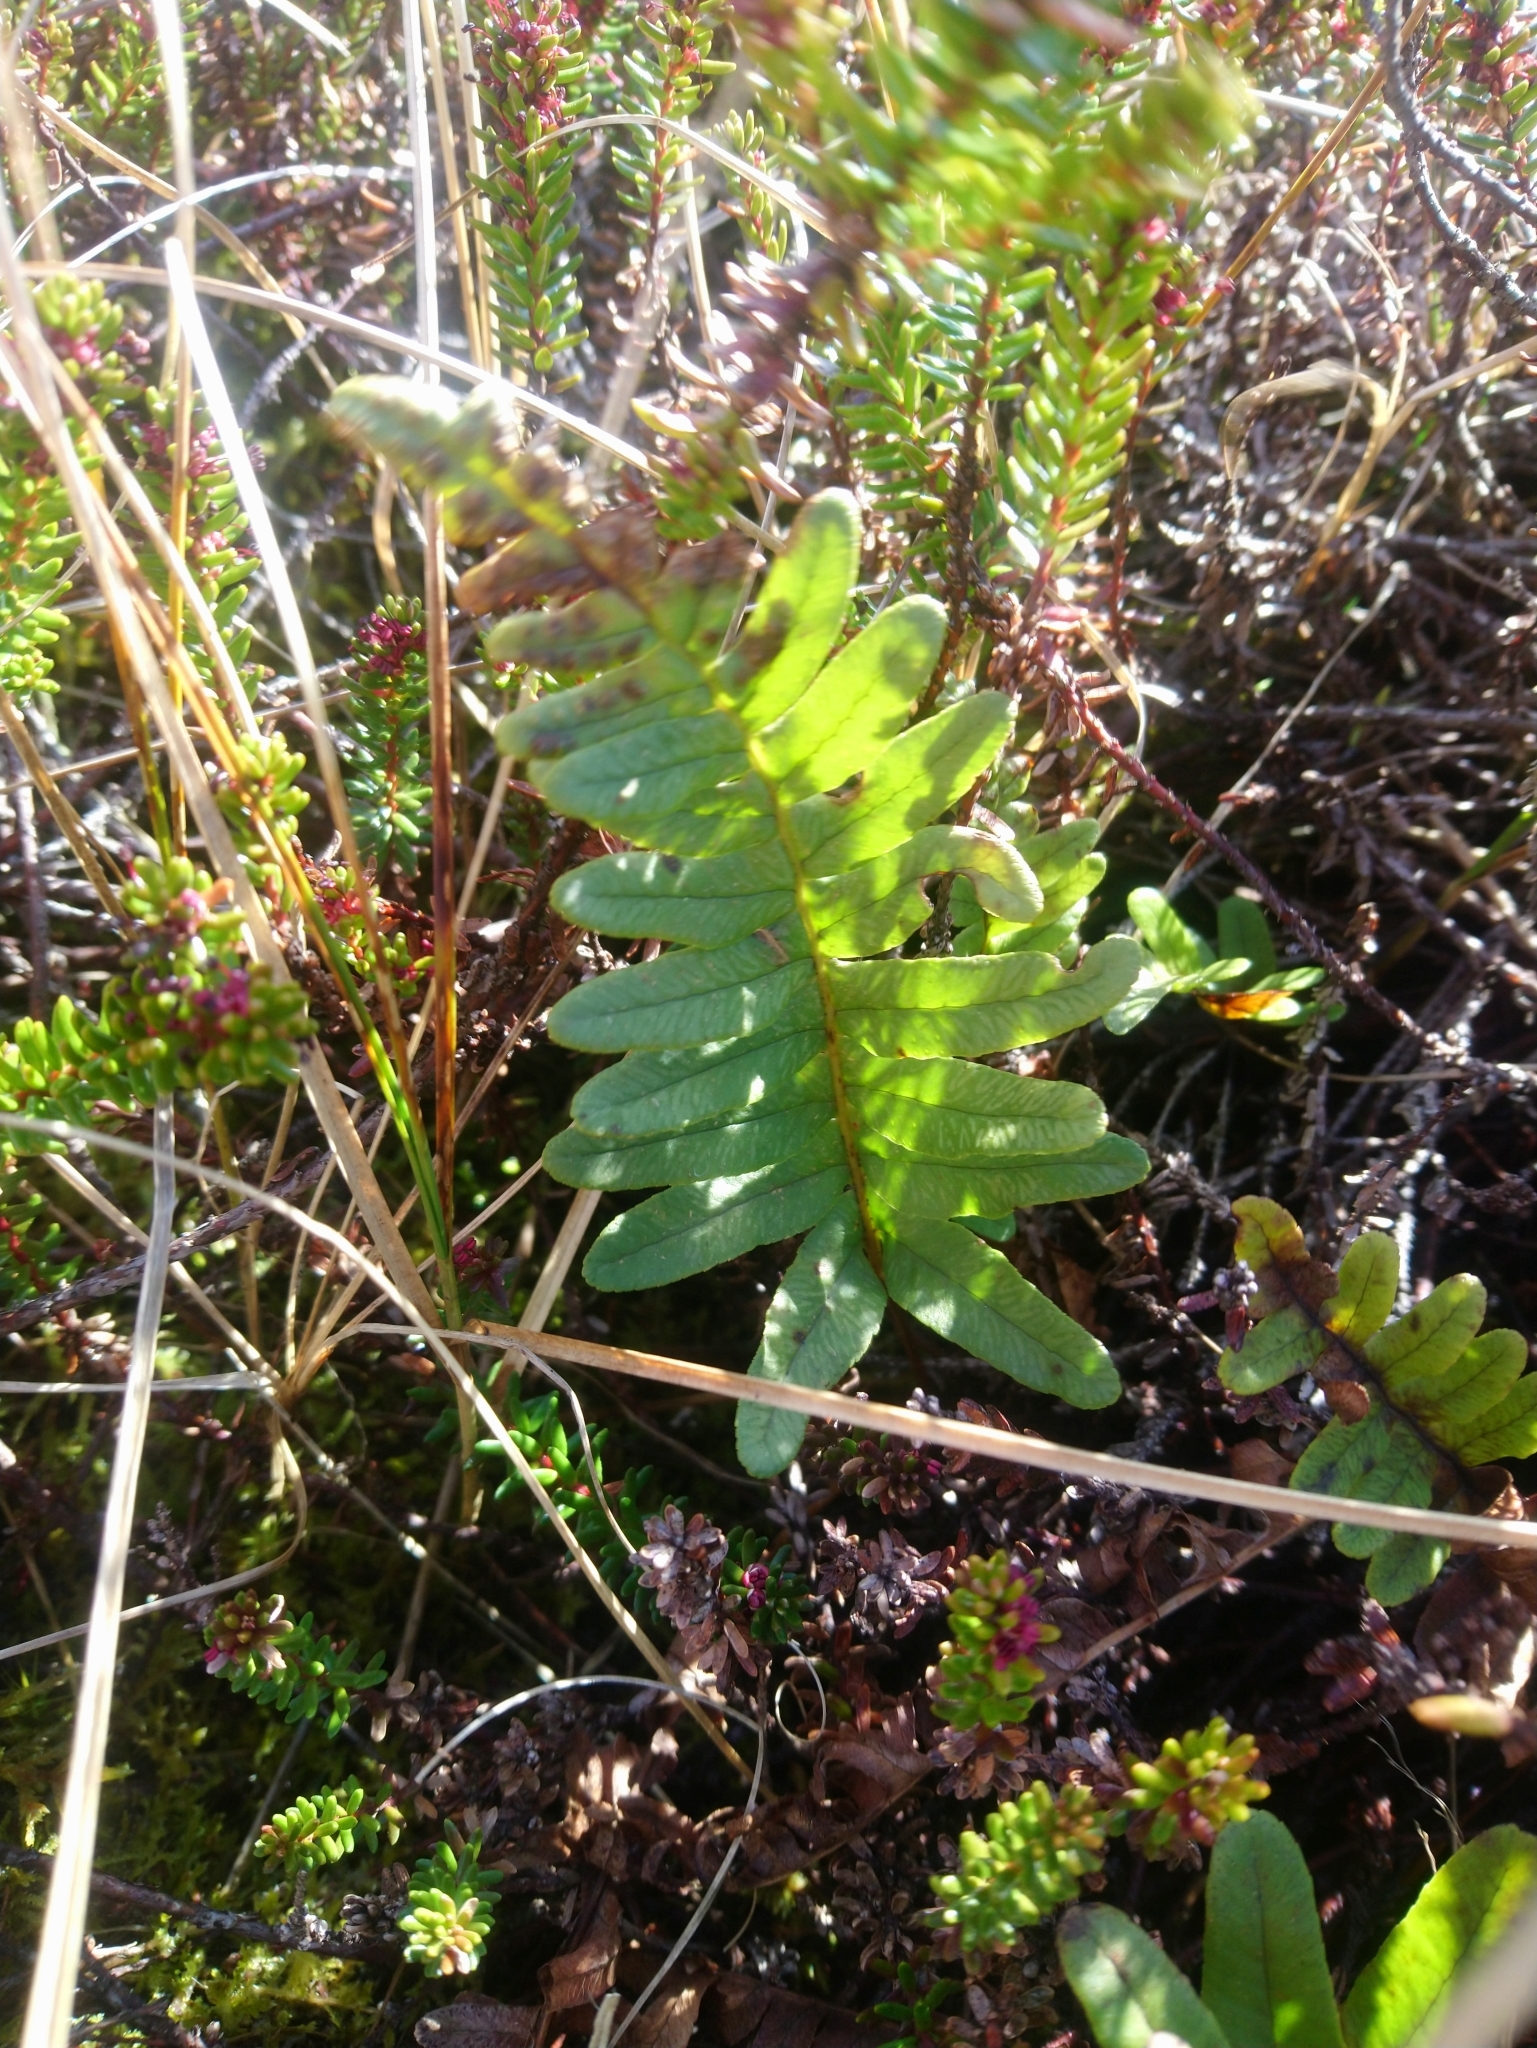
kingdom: Plantae
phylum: Tracheophyta
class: Polypodiopsida
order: Polypodiales
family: Polypodiaceae
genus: Polypodium
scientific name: Polypodium vulgare
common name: Common polypody
